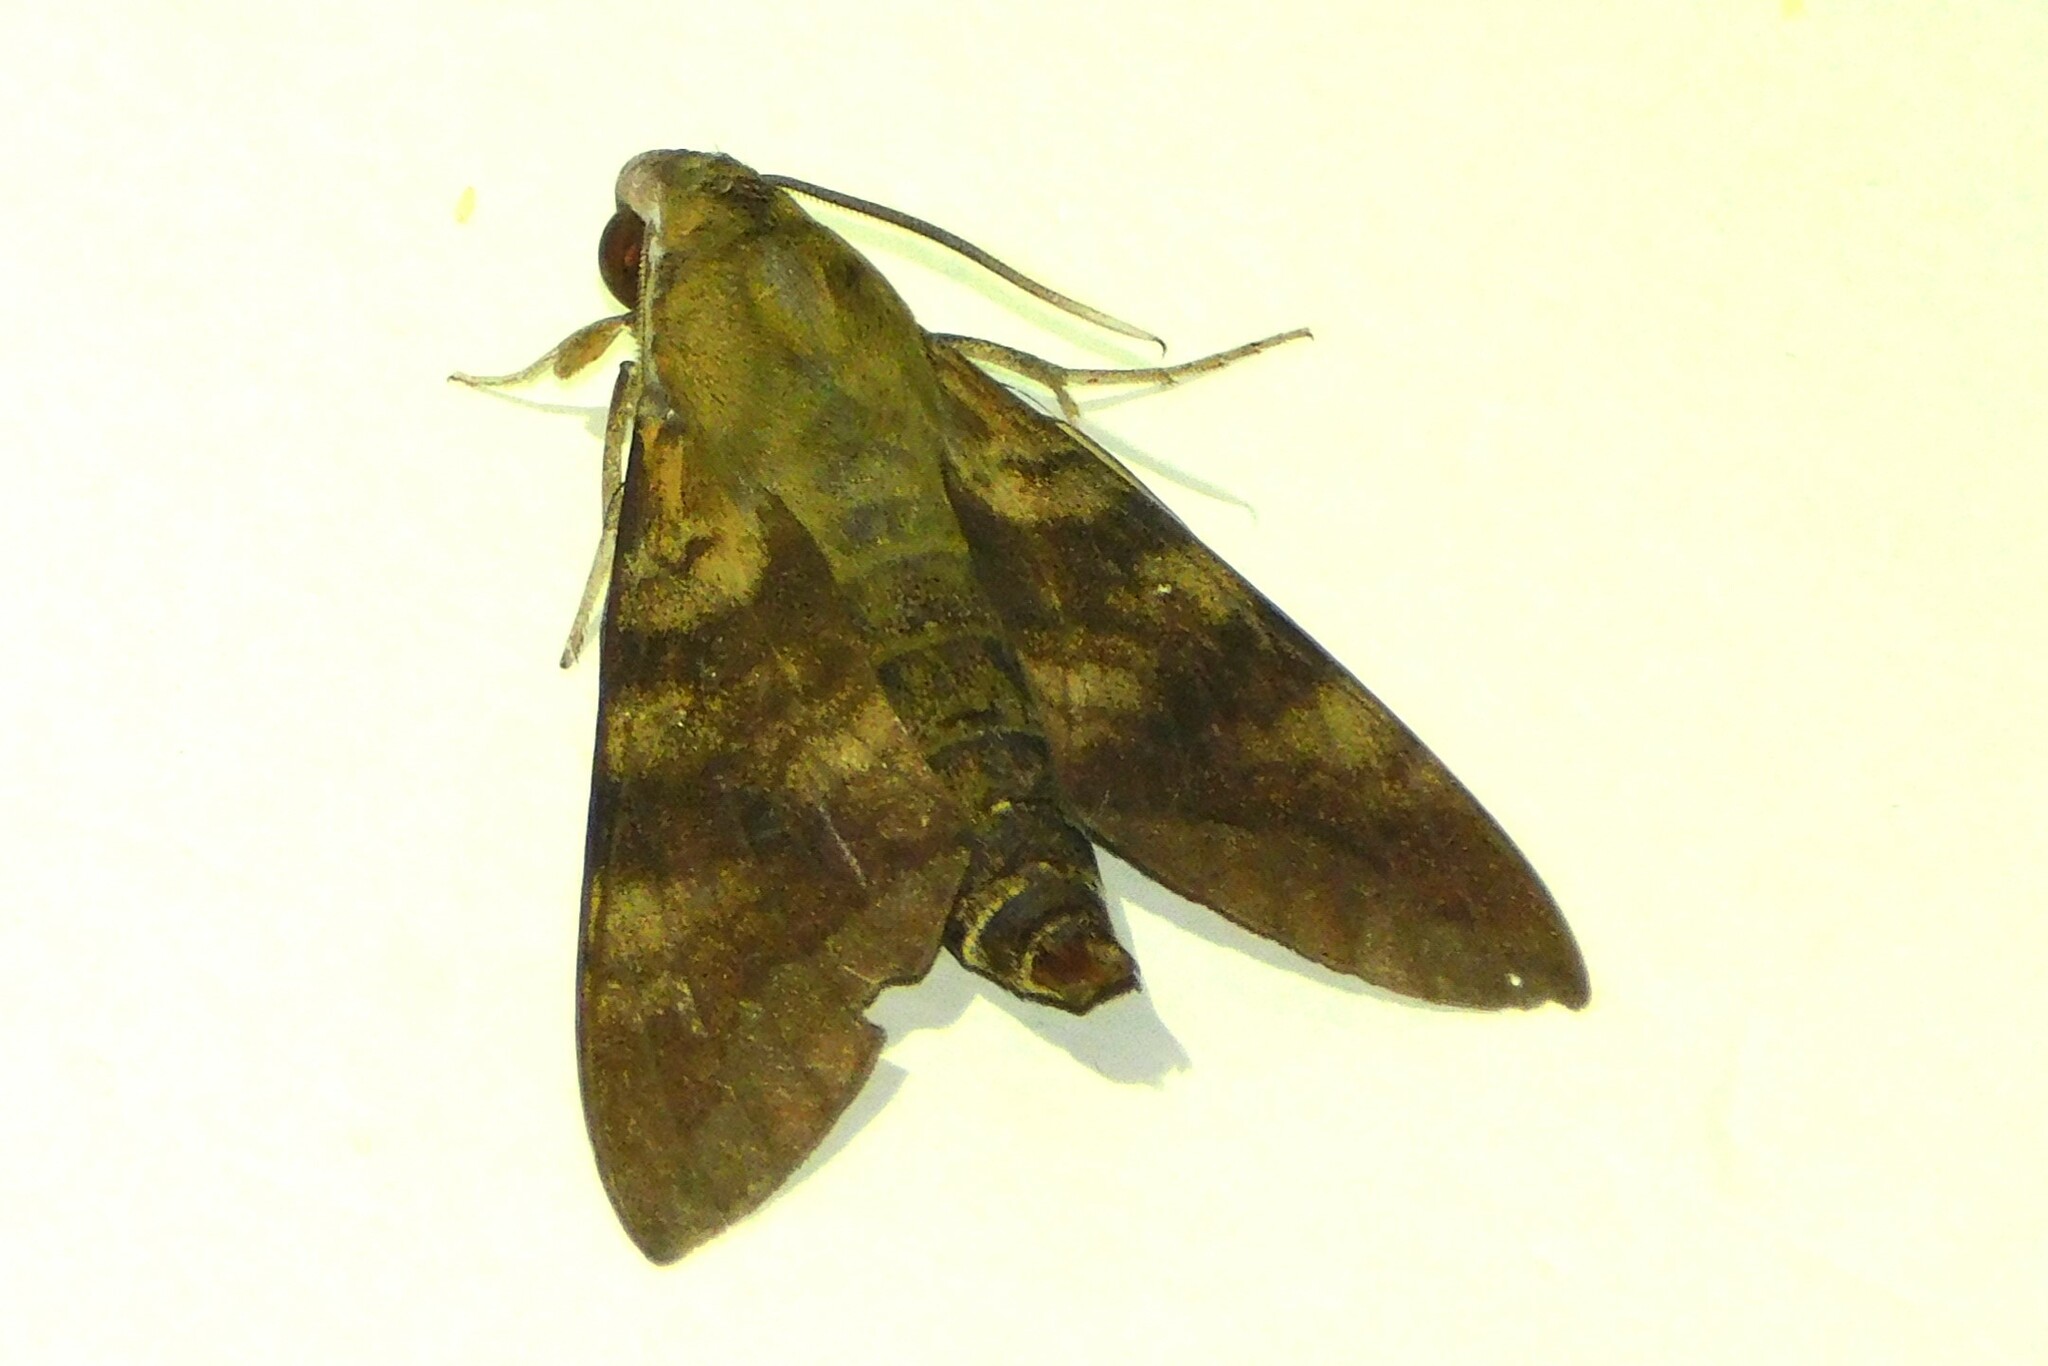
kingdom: Animalia
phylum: Arthropoda
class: Insecta
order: Lepidoptera
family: Sphingidae
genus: Nephele
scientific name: Nephele comma
